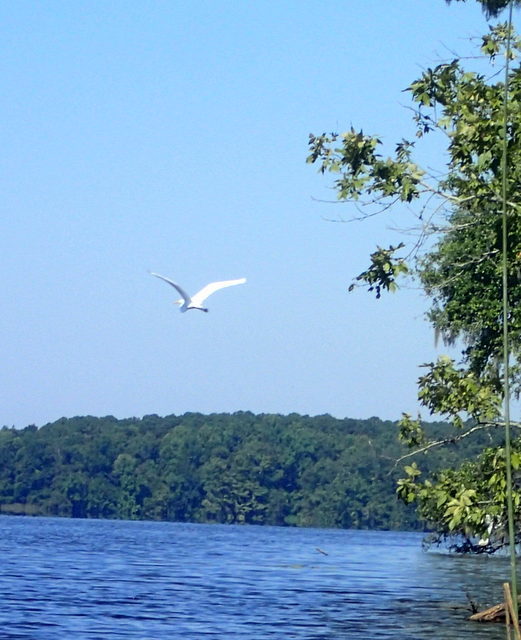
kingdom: Animalia
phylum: Chordata
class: Aves
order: Pelecaniformes
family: Ardeidae
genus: Ardea
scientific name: Ardea alba
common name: Great egret
